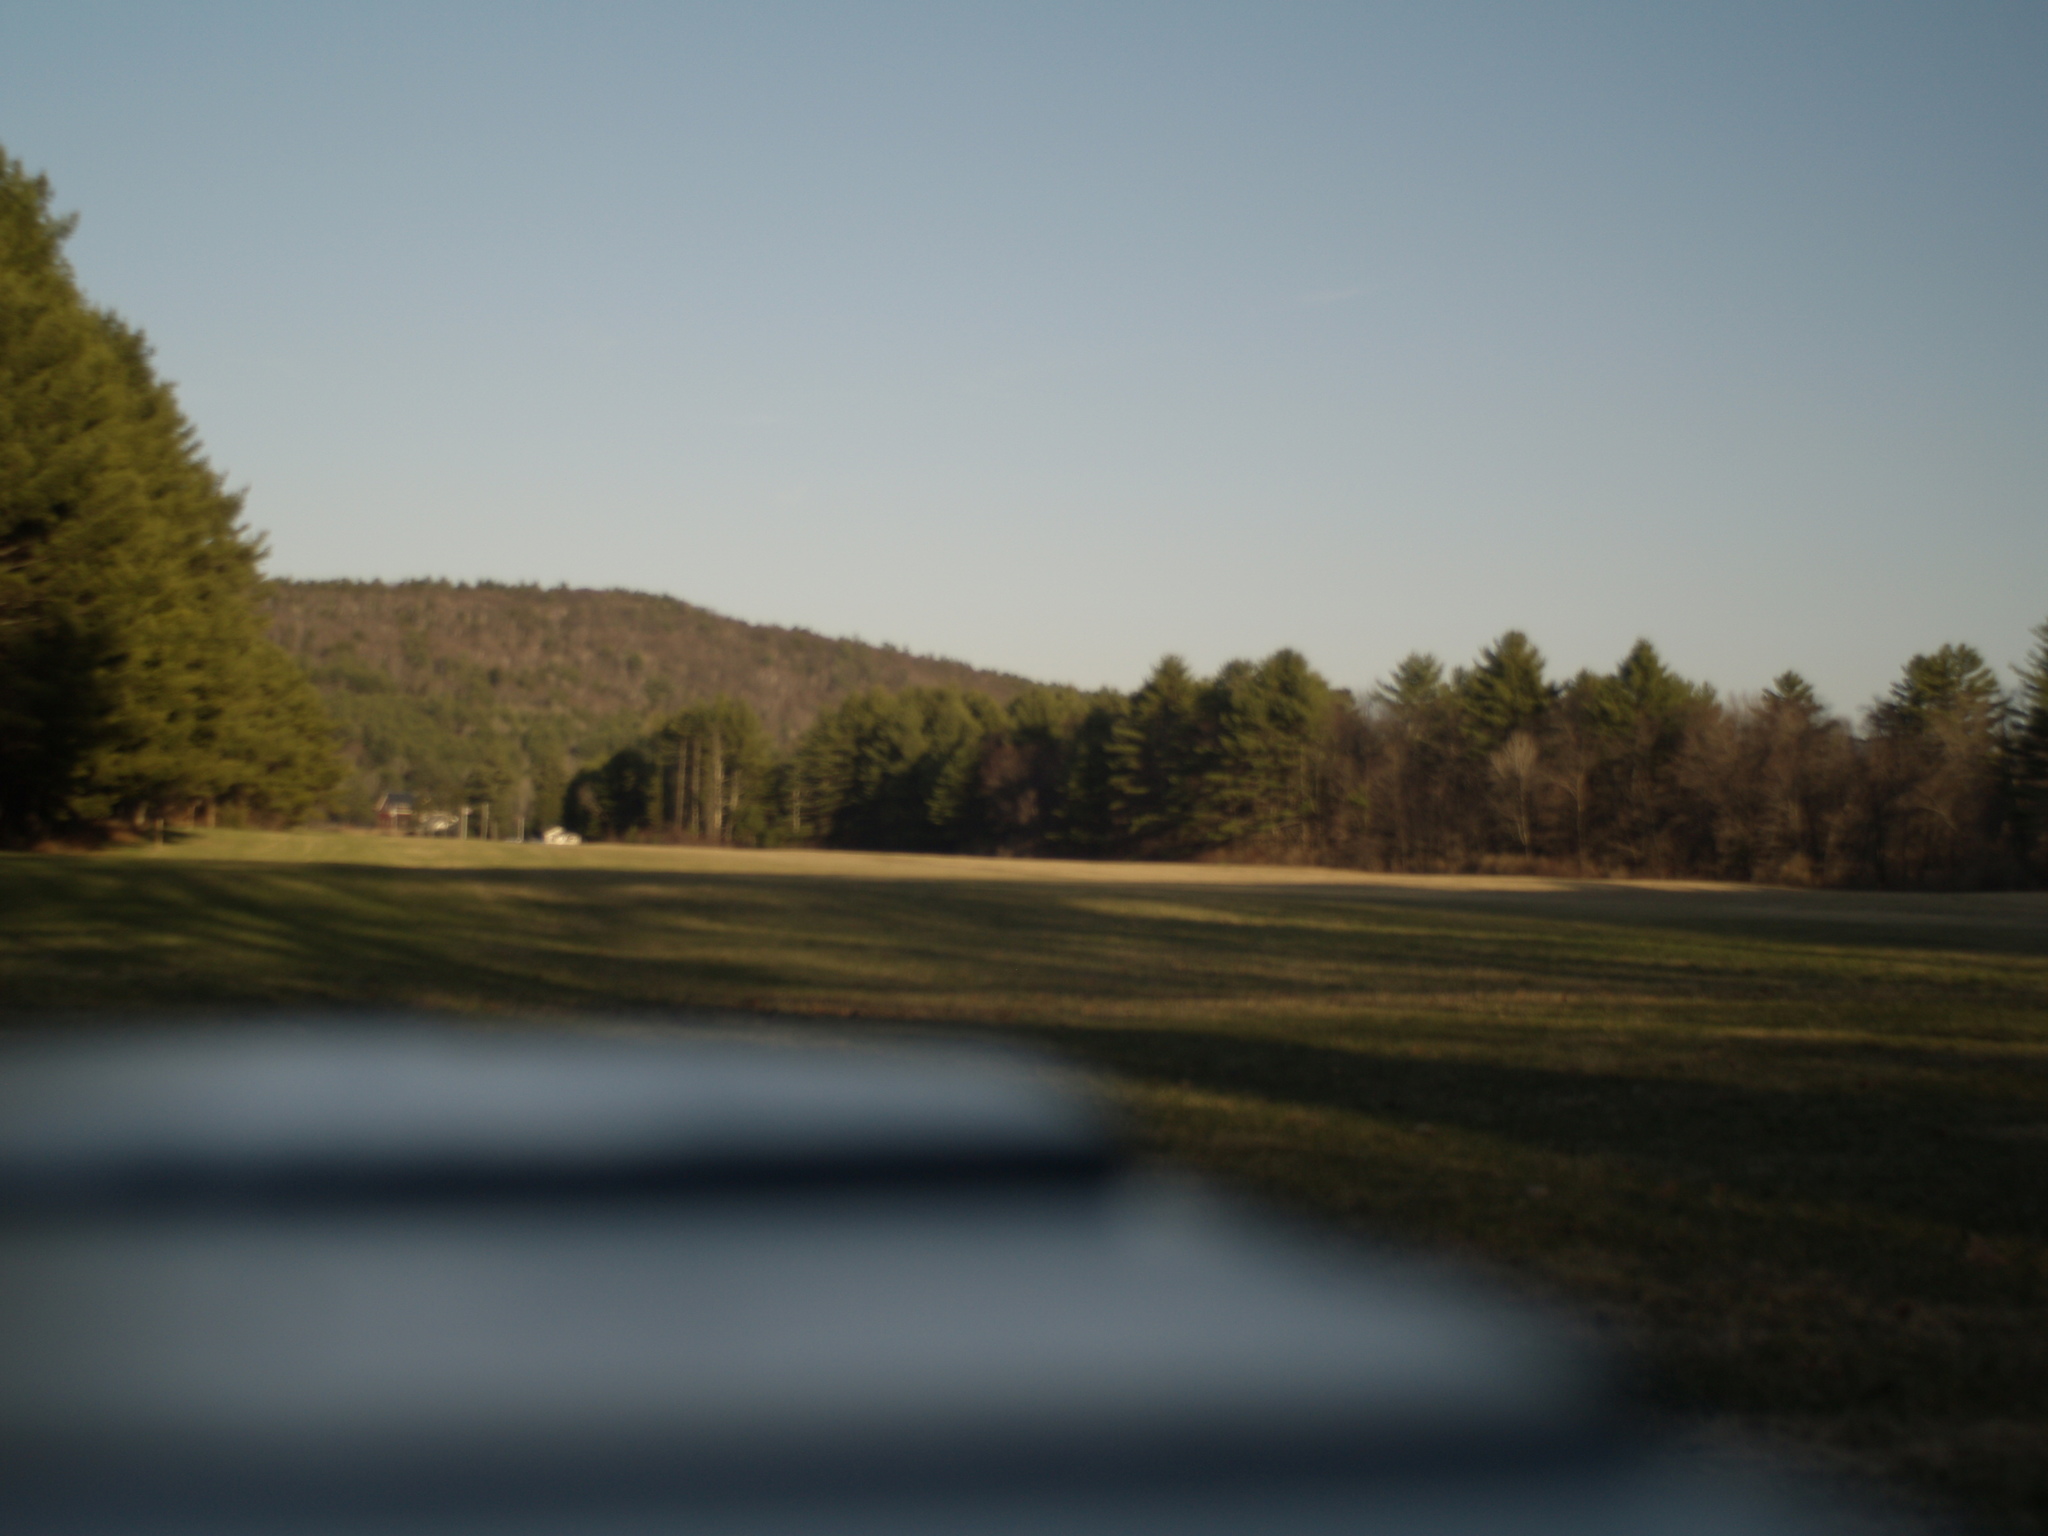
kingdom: Plantae
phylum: Tracheophyta
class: Pinopsida
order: Pinales
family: Pinaceae
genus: Pinus
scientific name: Pinus strobus
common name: Weymouth pine
